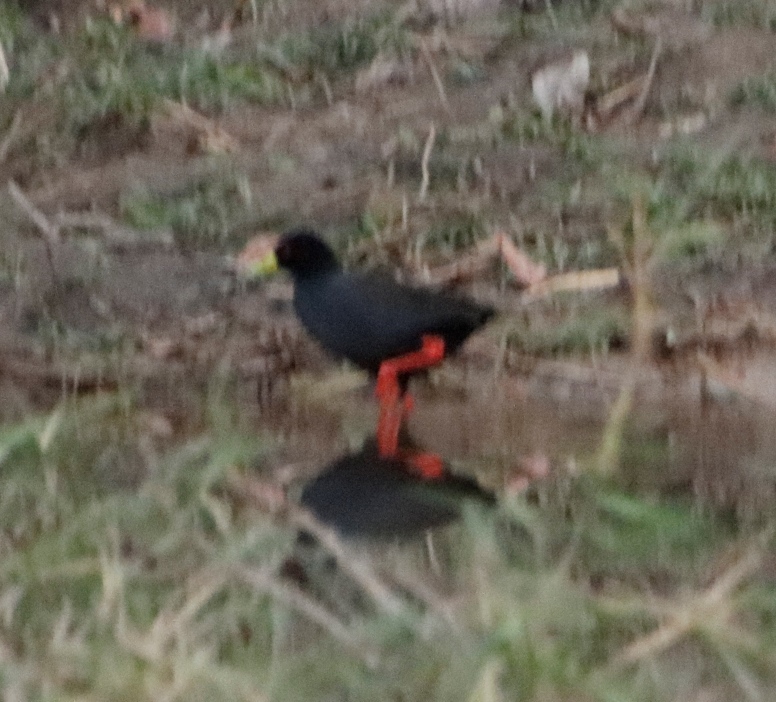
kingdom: Animalia
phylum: Chordata
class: Aves
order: Gruiformes
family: Rallidae
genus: Amaurornis
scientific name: Amaurornis flavirostra
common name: Black crake
